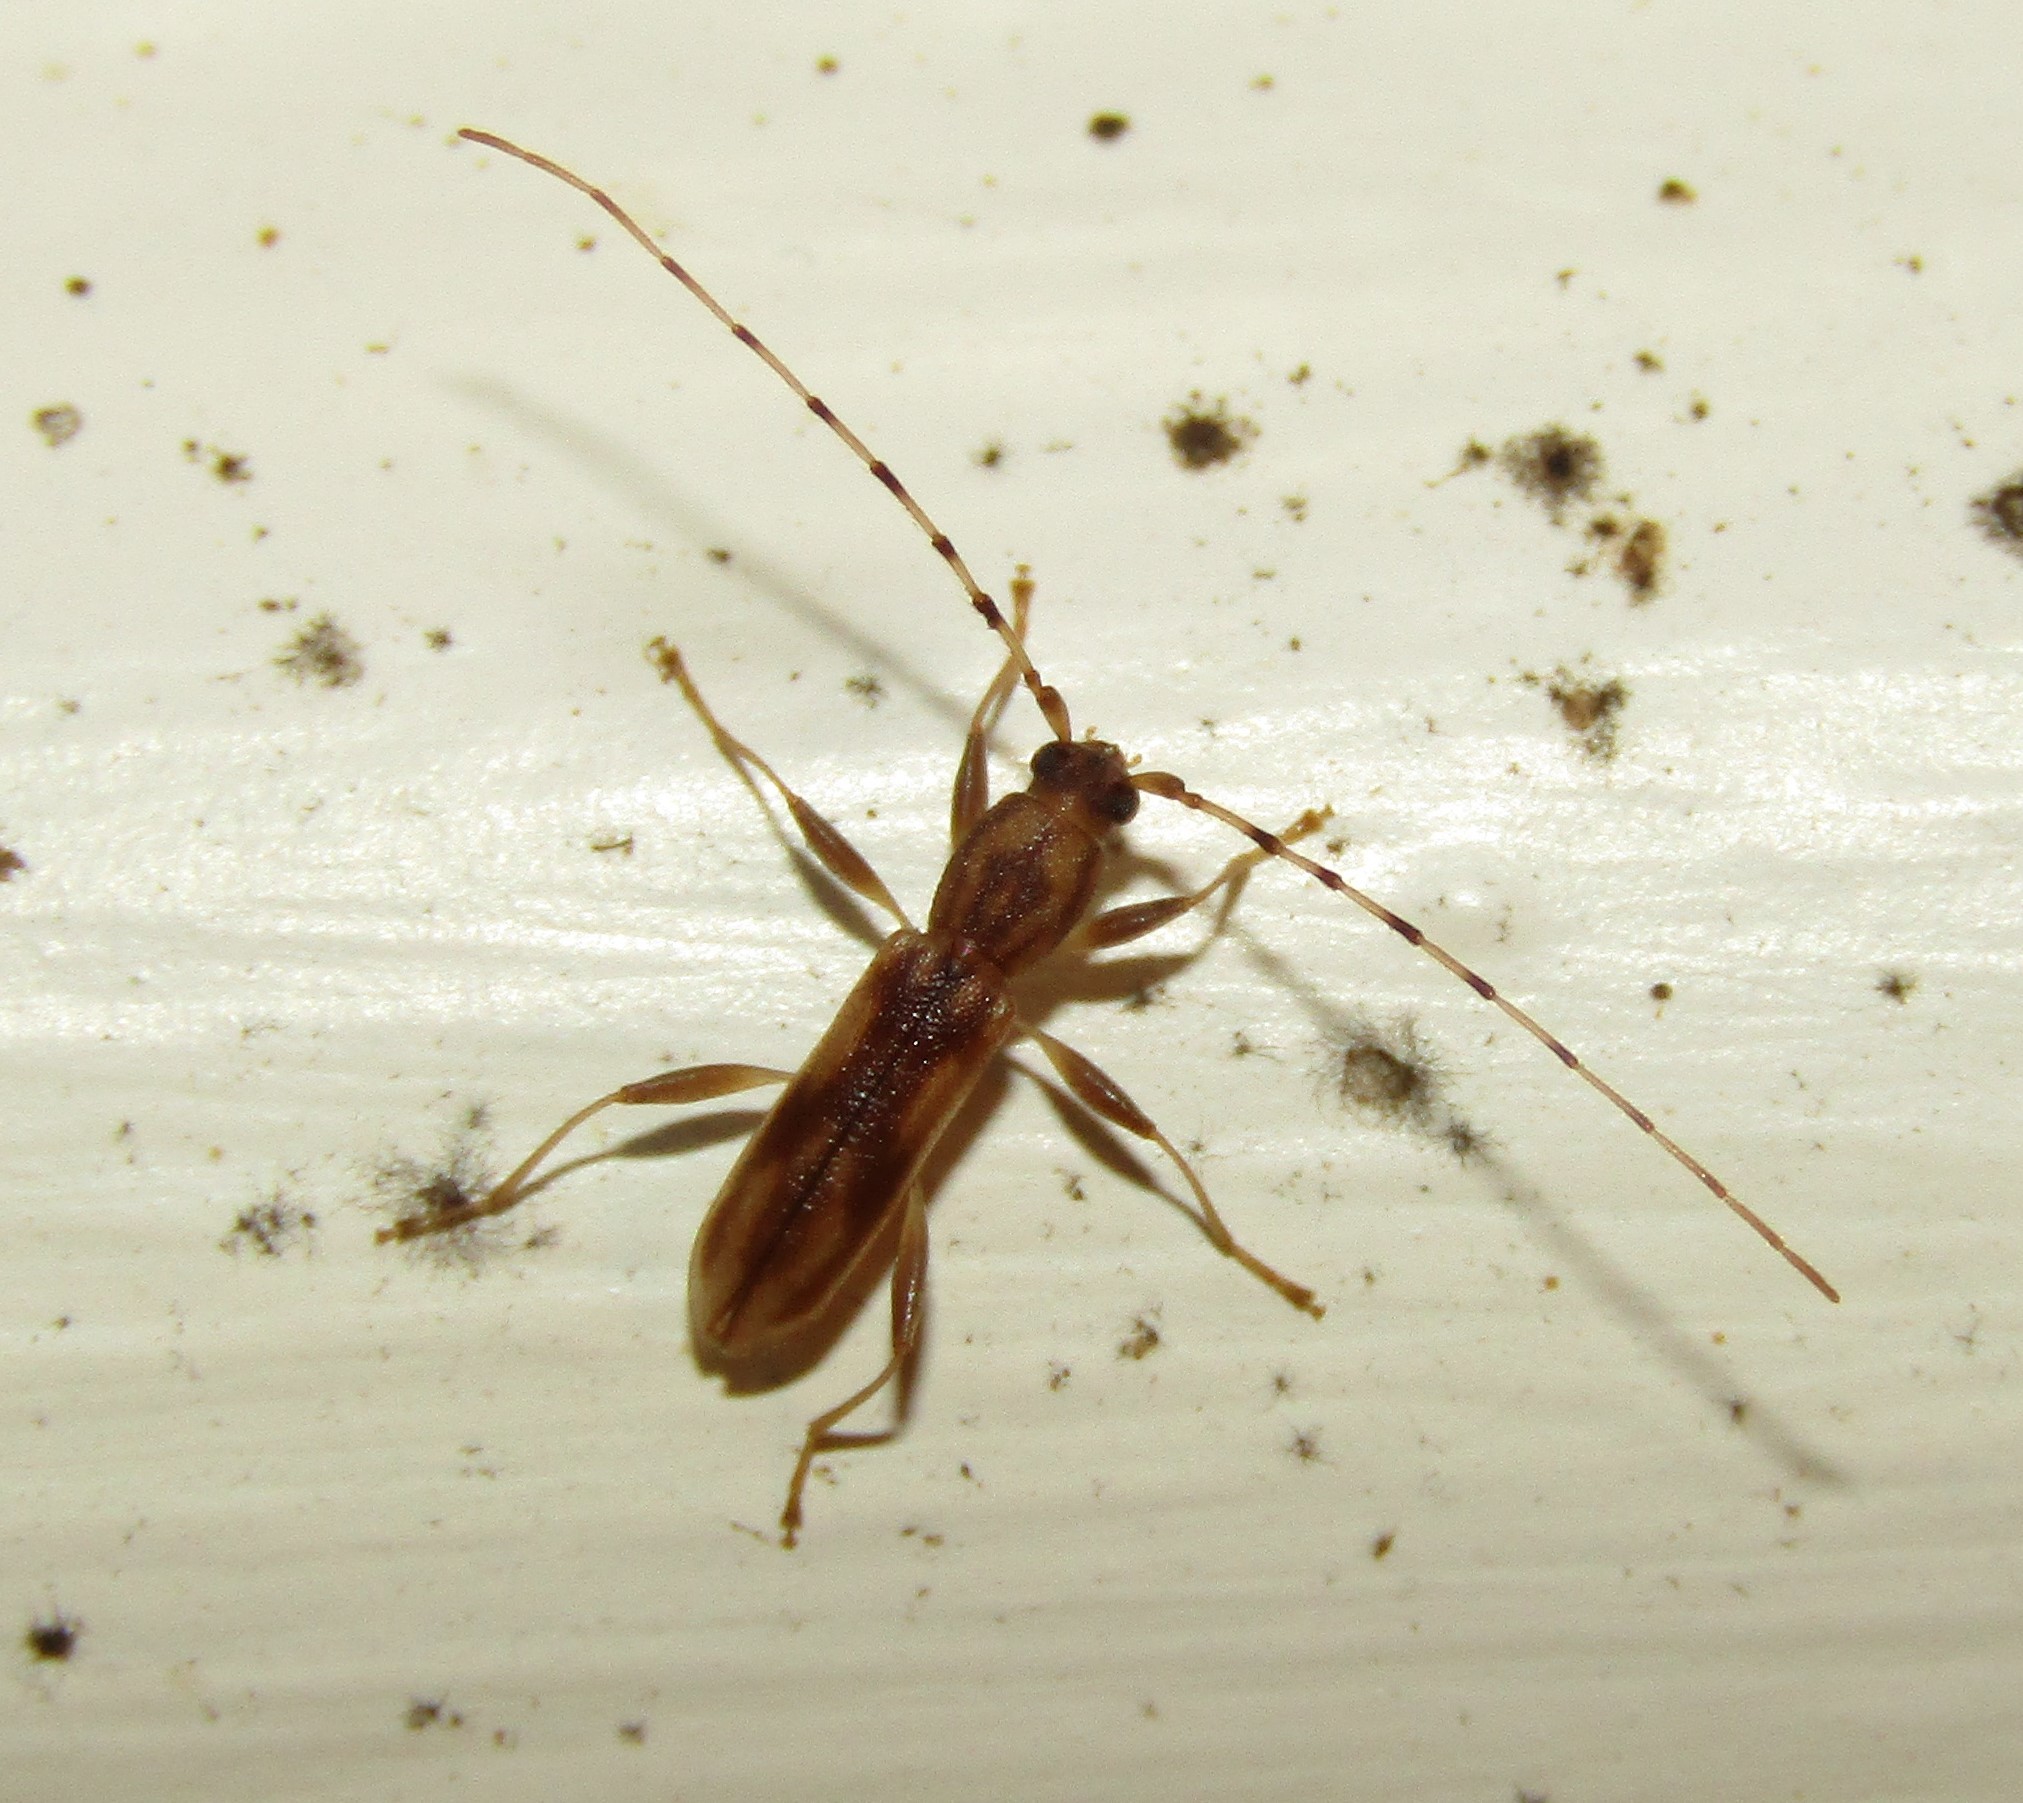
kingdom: Animalia
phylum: Arthropoda
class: Insecta
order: Coleoptera
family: Cerambycidae
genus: Curius
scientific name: Curius dentatus
